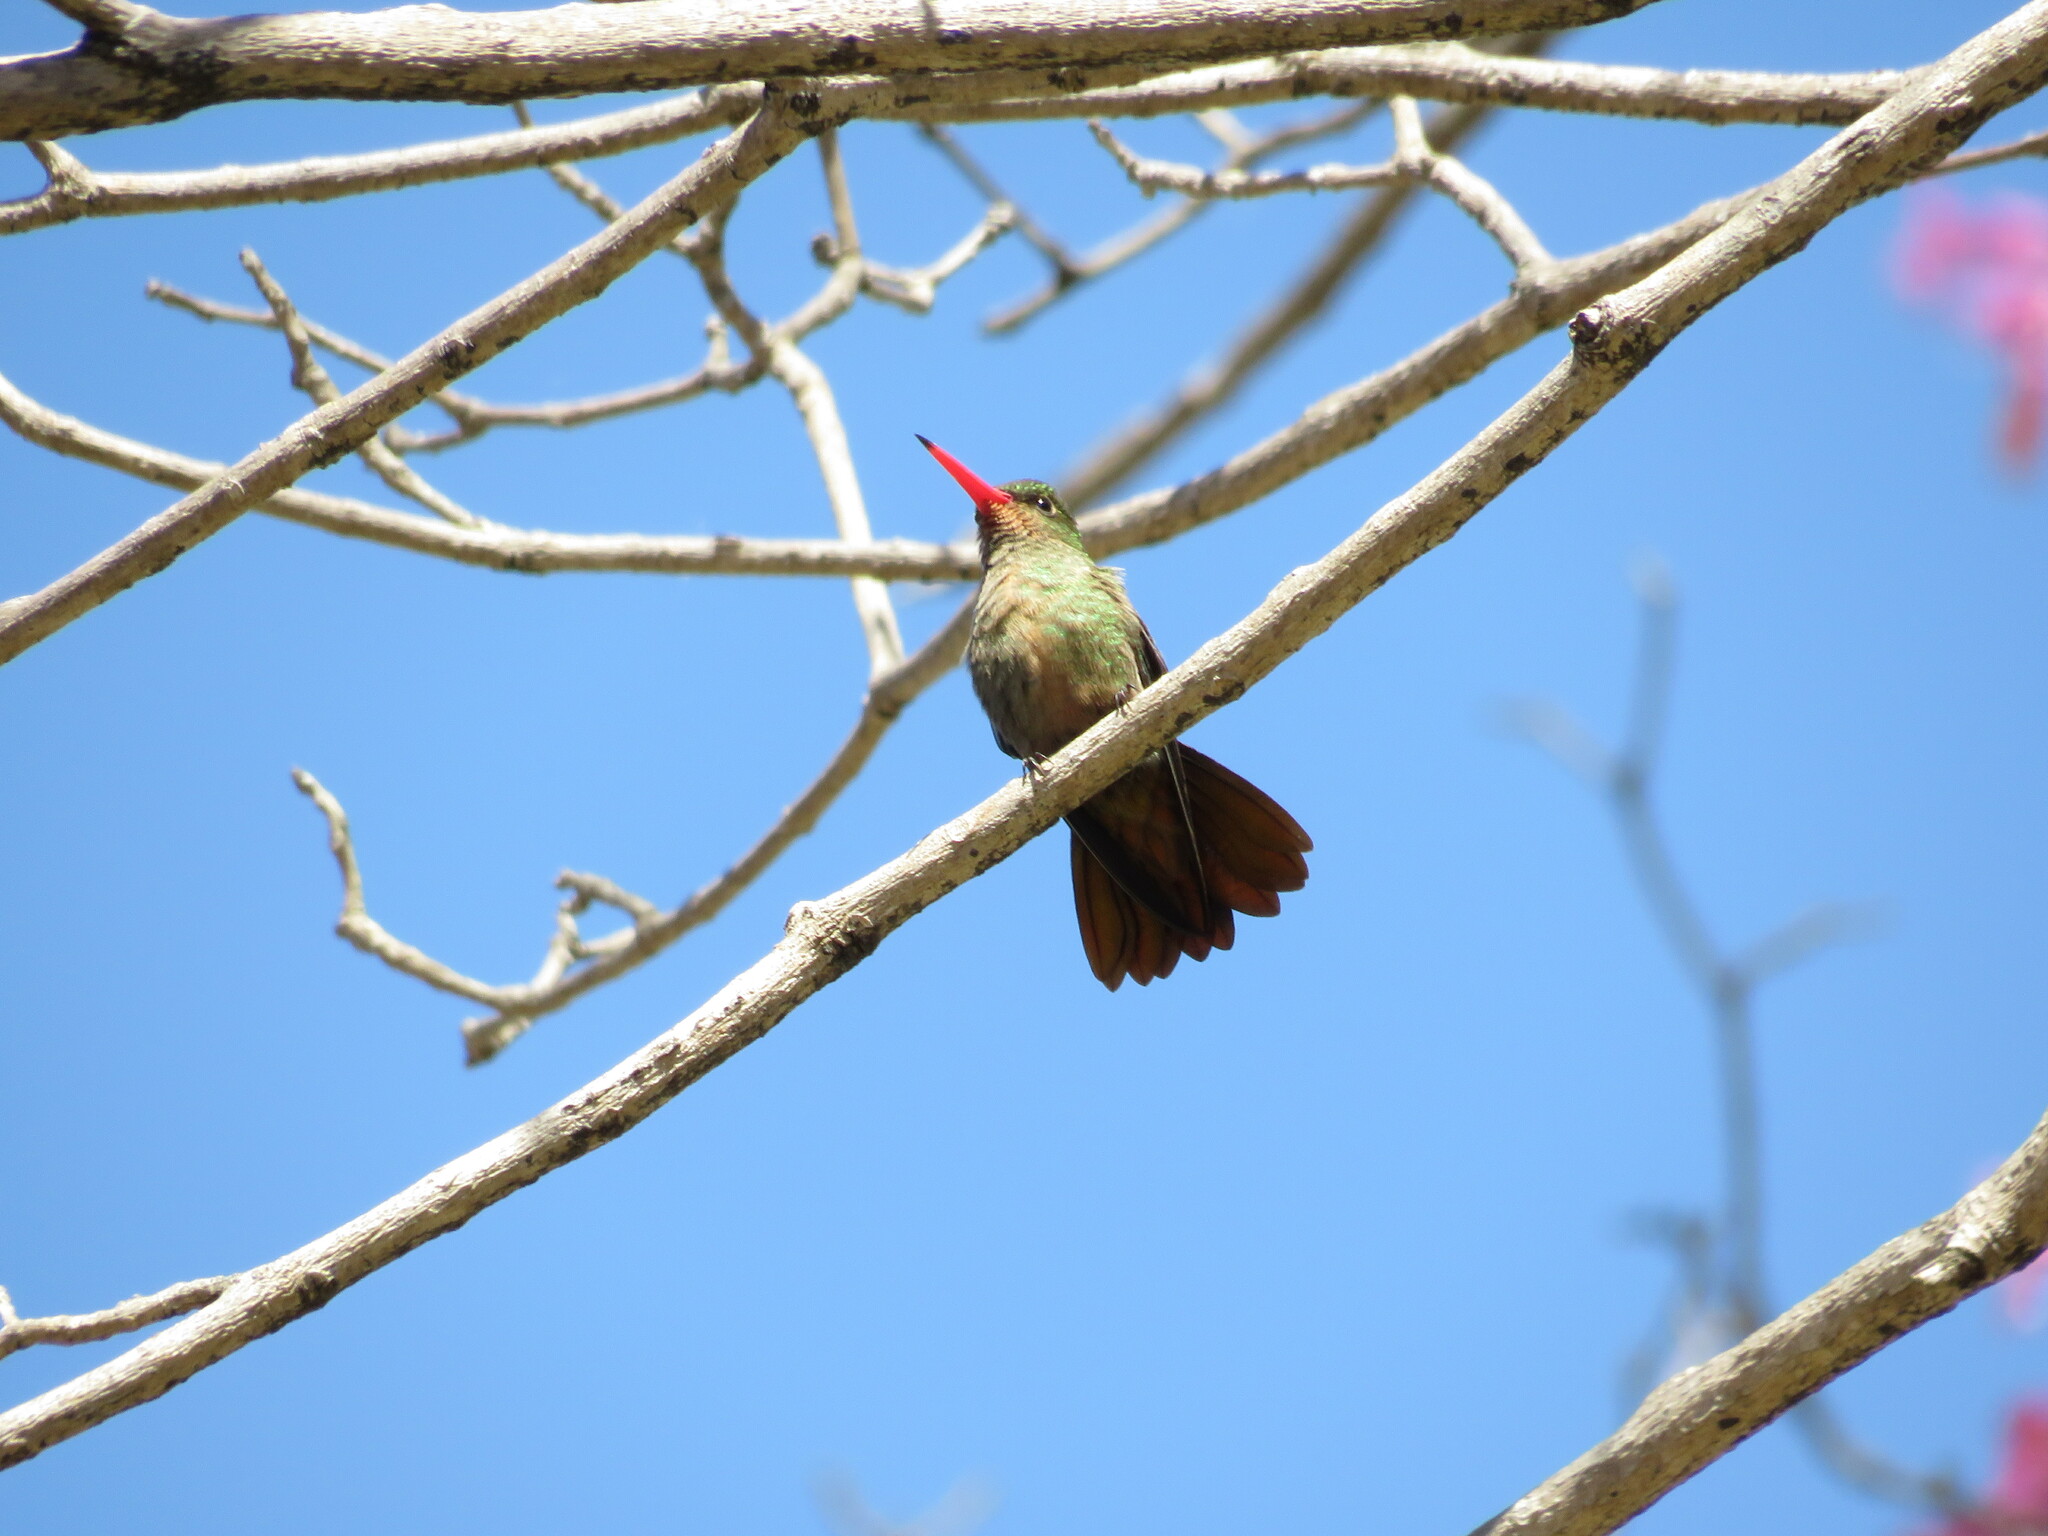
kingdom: Animalia
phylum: Chordata
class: Aves
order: Apodiformes
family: Trochilidae
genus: Hylocharis
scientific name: Hylocharis chrysura
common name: Gilded sapphire
